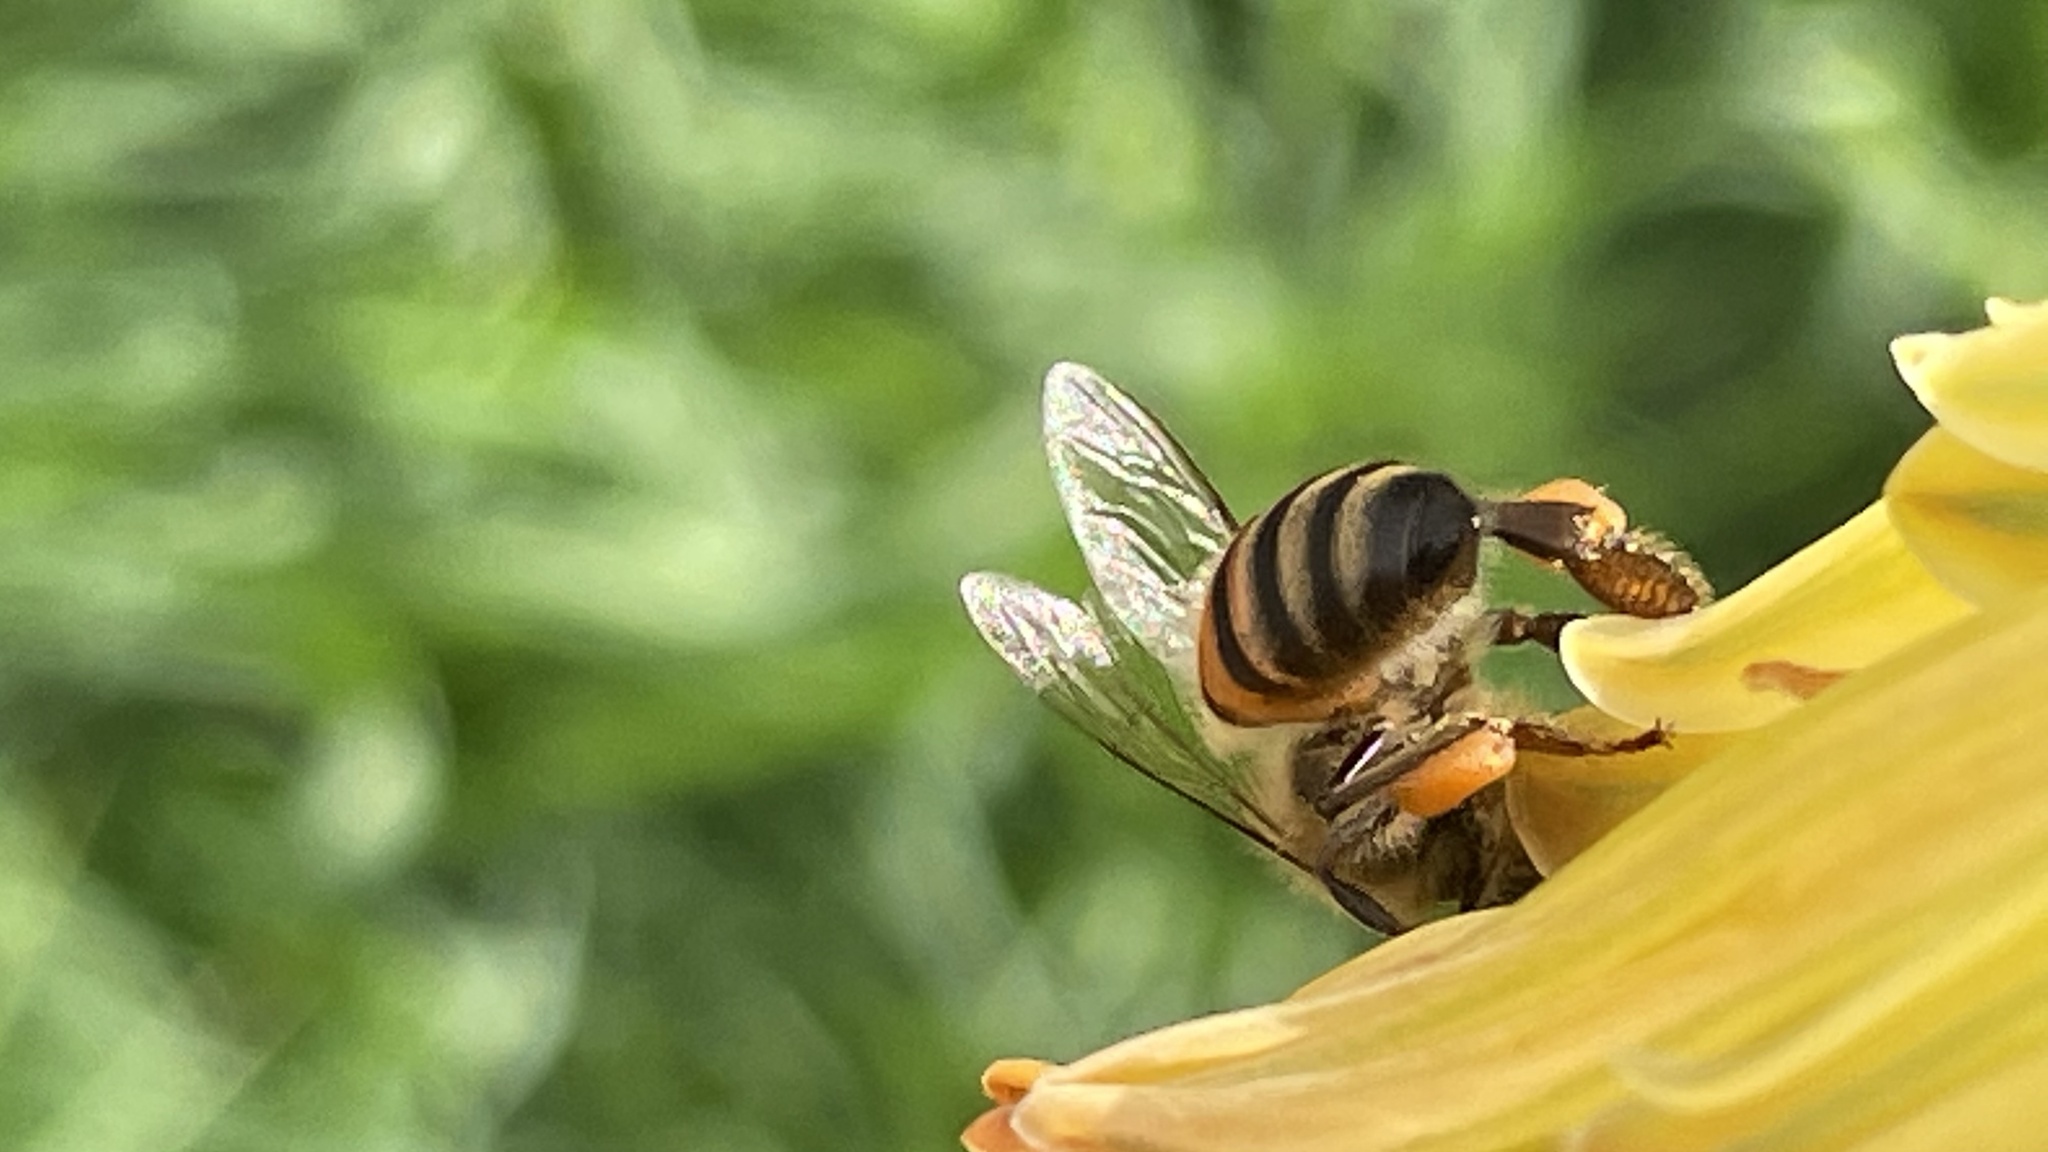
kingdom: Animalia
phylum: Arthropoda
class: Insecta
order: Hymenoptera
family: Apidae
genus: Apis
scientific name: Apis mellifera
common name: Honey bee
